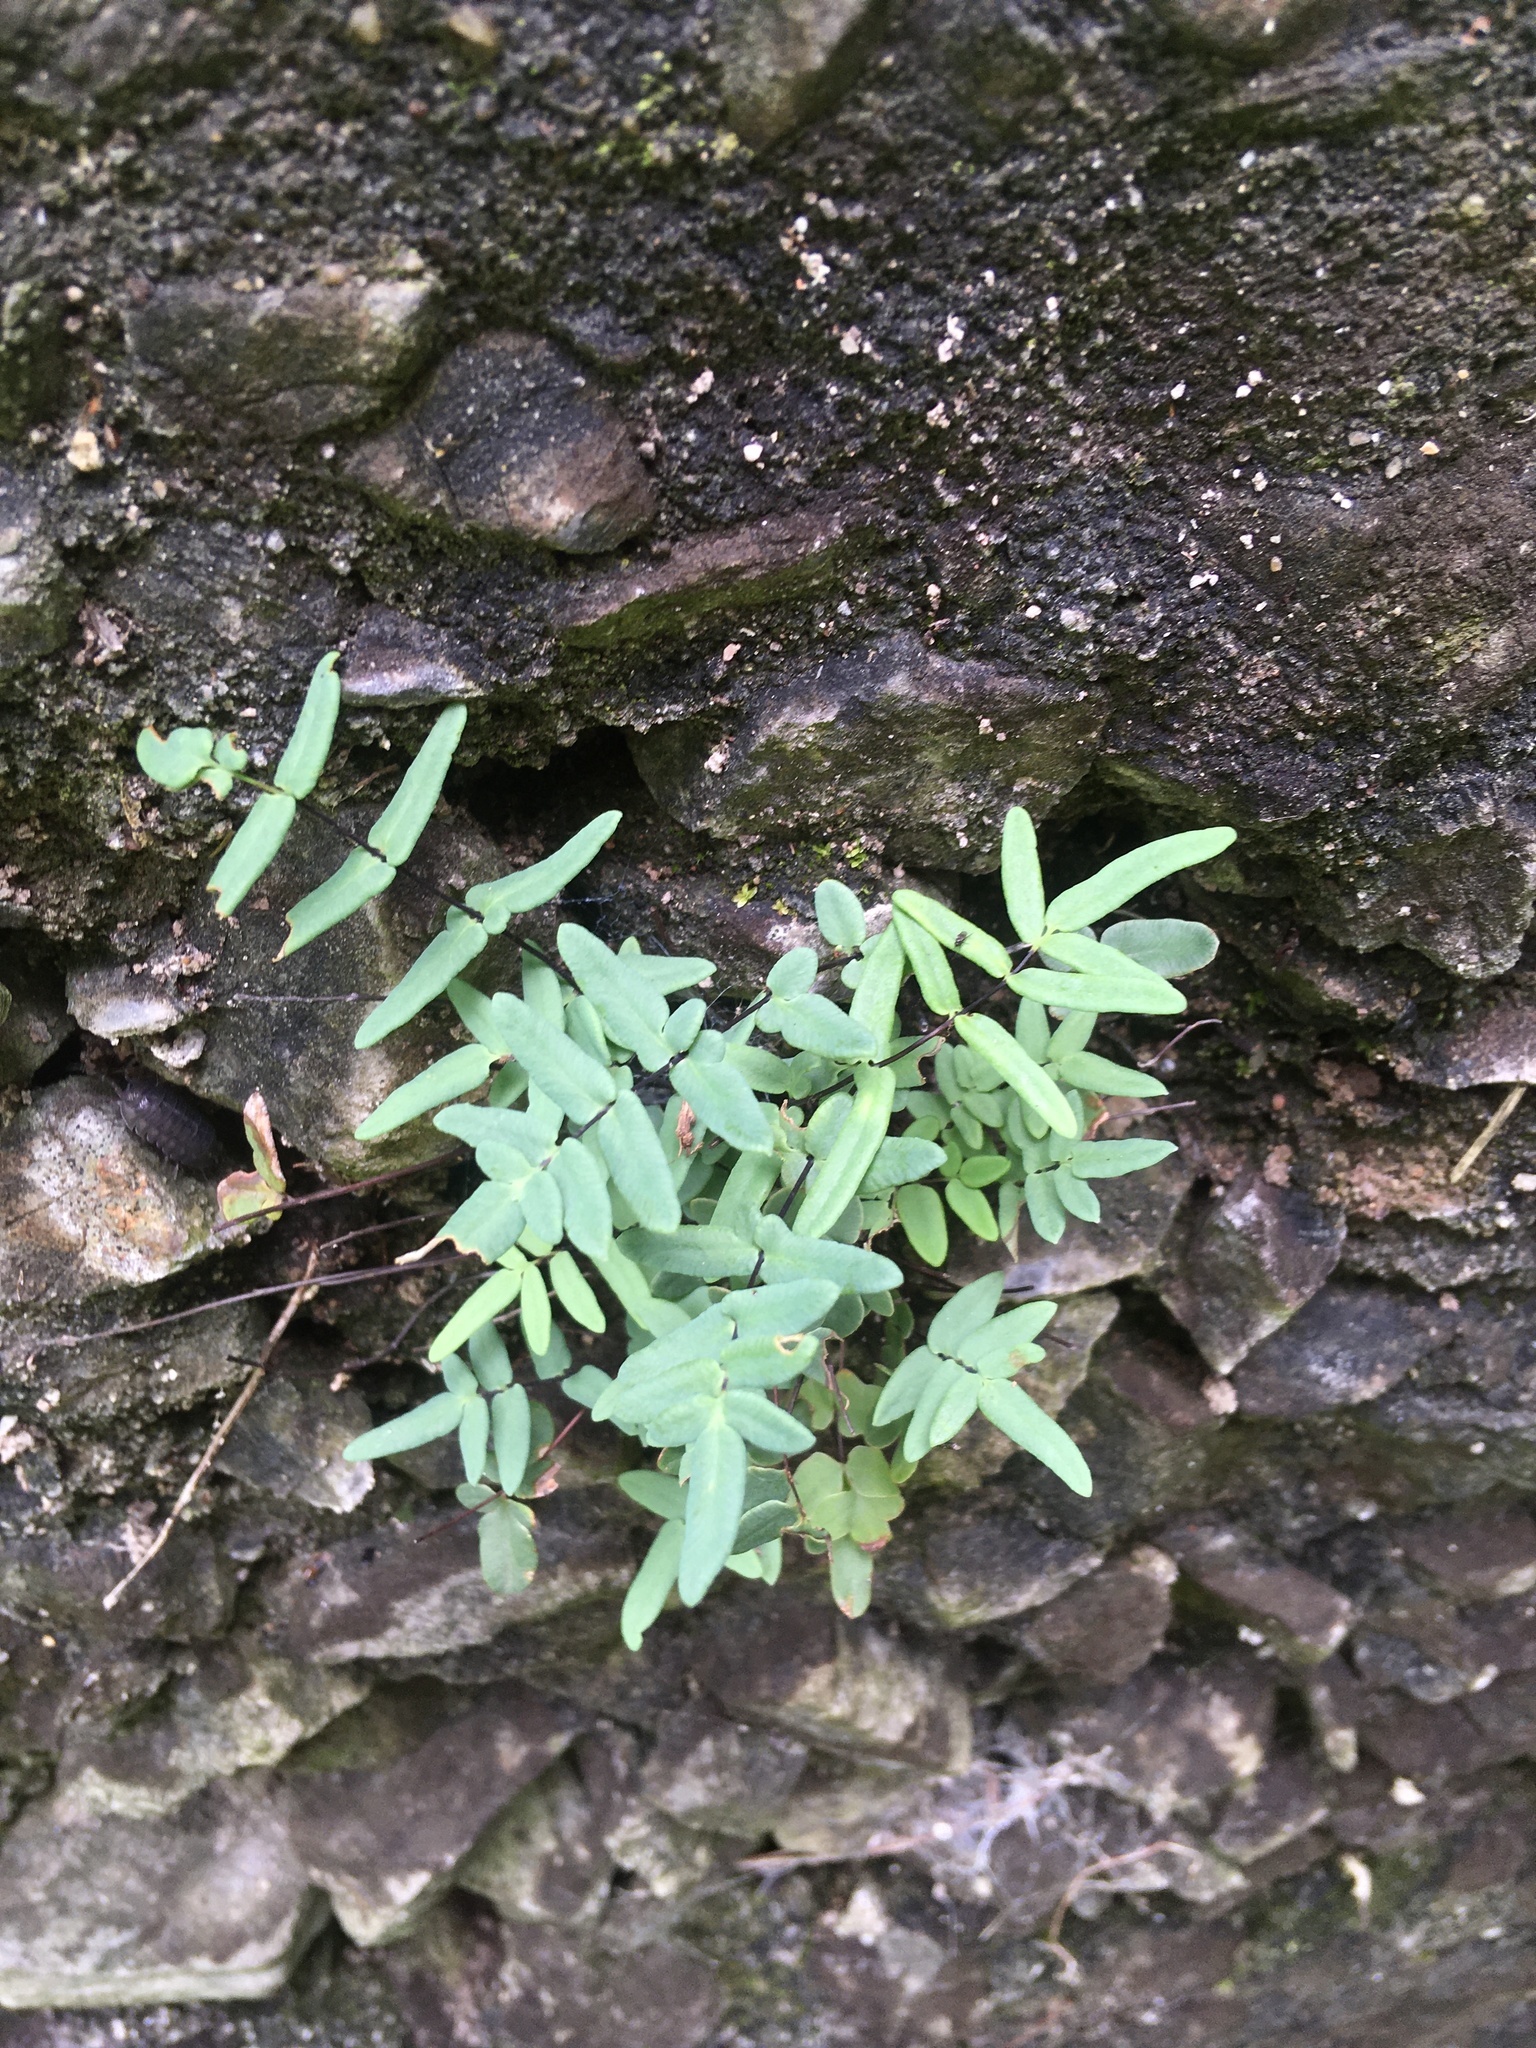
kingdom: Plantae
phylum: Tracheophyta
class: Polypodiopsida
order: Polypodiales
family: Pteridaceae
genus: Pellaea
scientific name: Pellaea glabella
